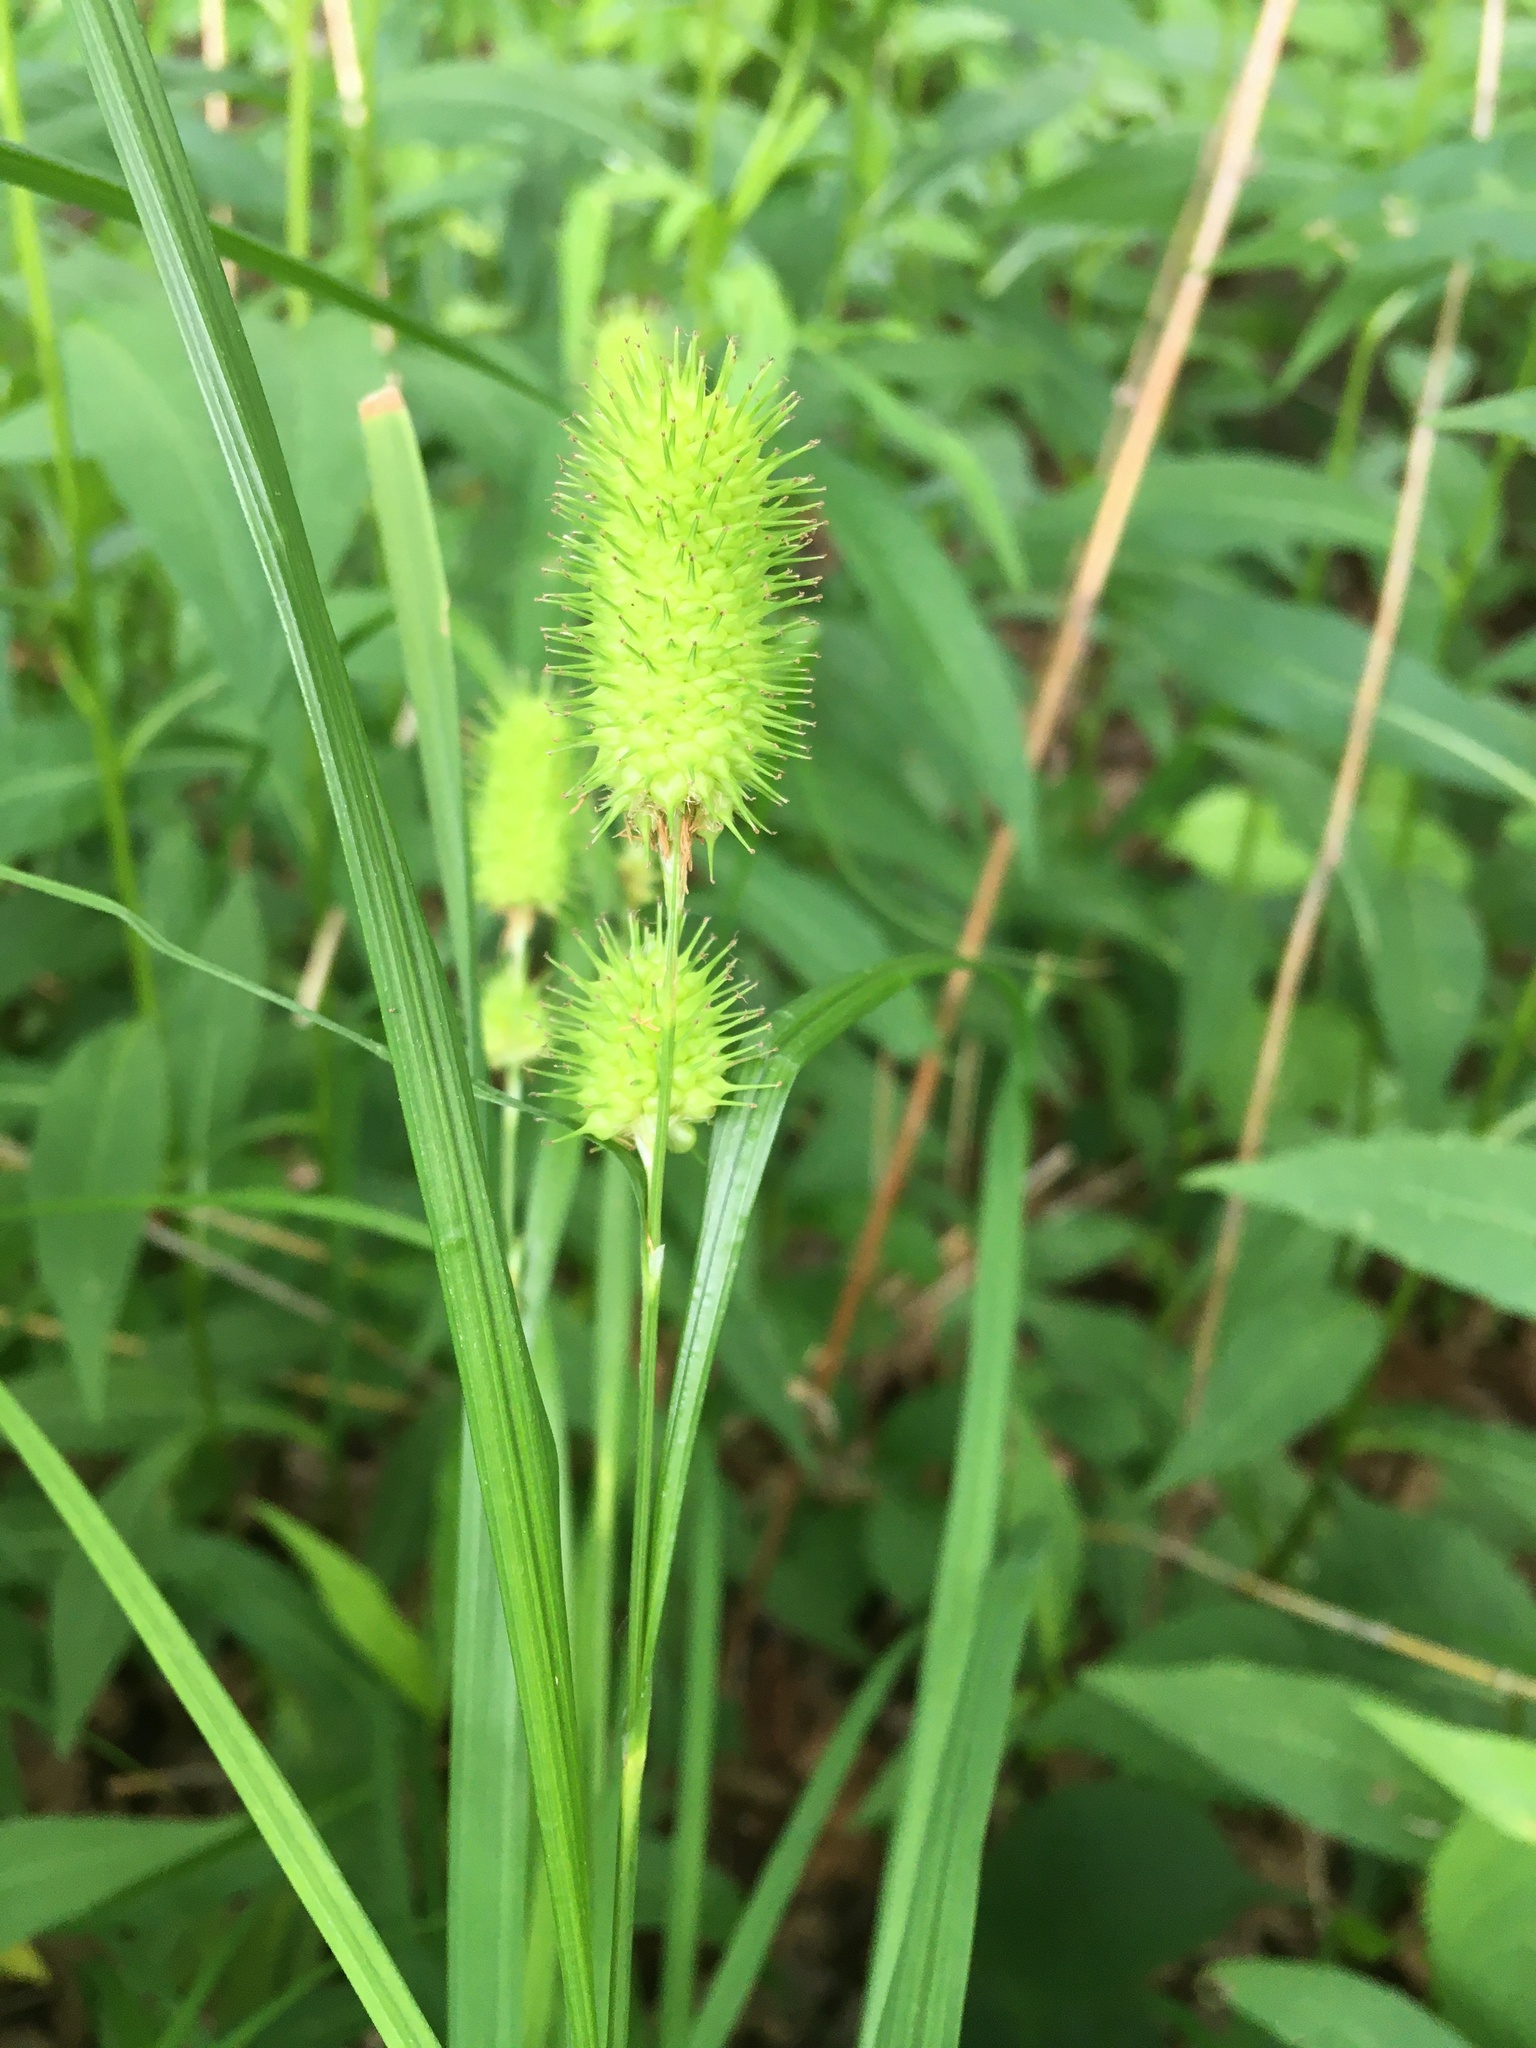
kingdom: Plantae
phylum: Tracheophyta
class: Liliopsida
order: Poales
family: Cyperaceae
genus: Carex
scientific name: Carex squarrosa
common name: Narrow-leaved cattail sedge
